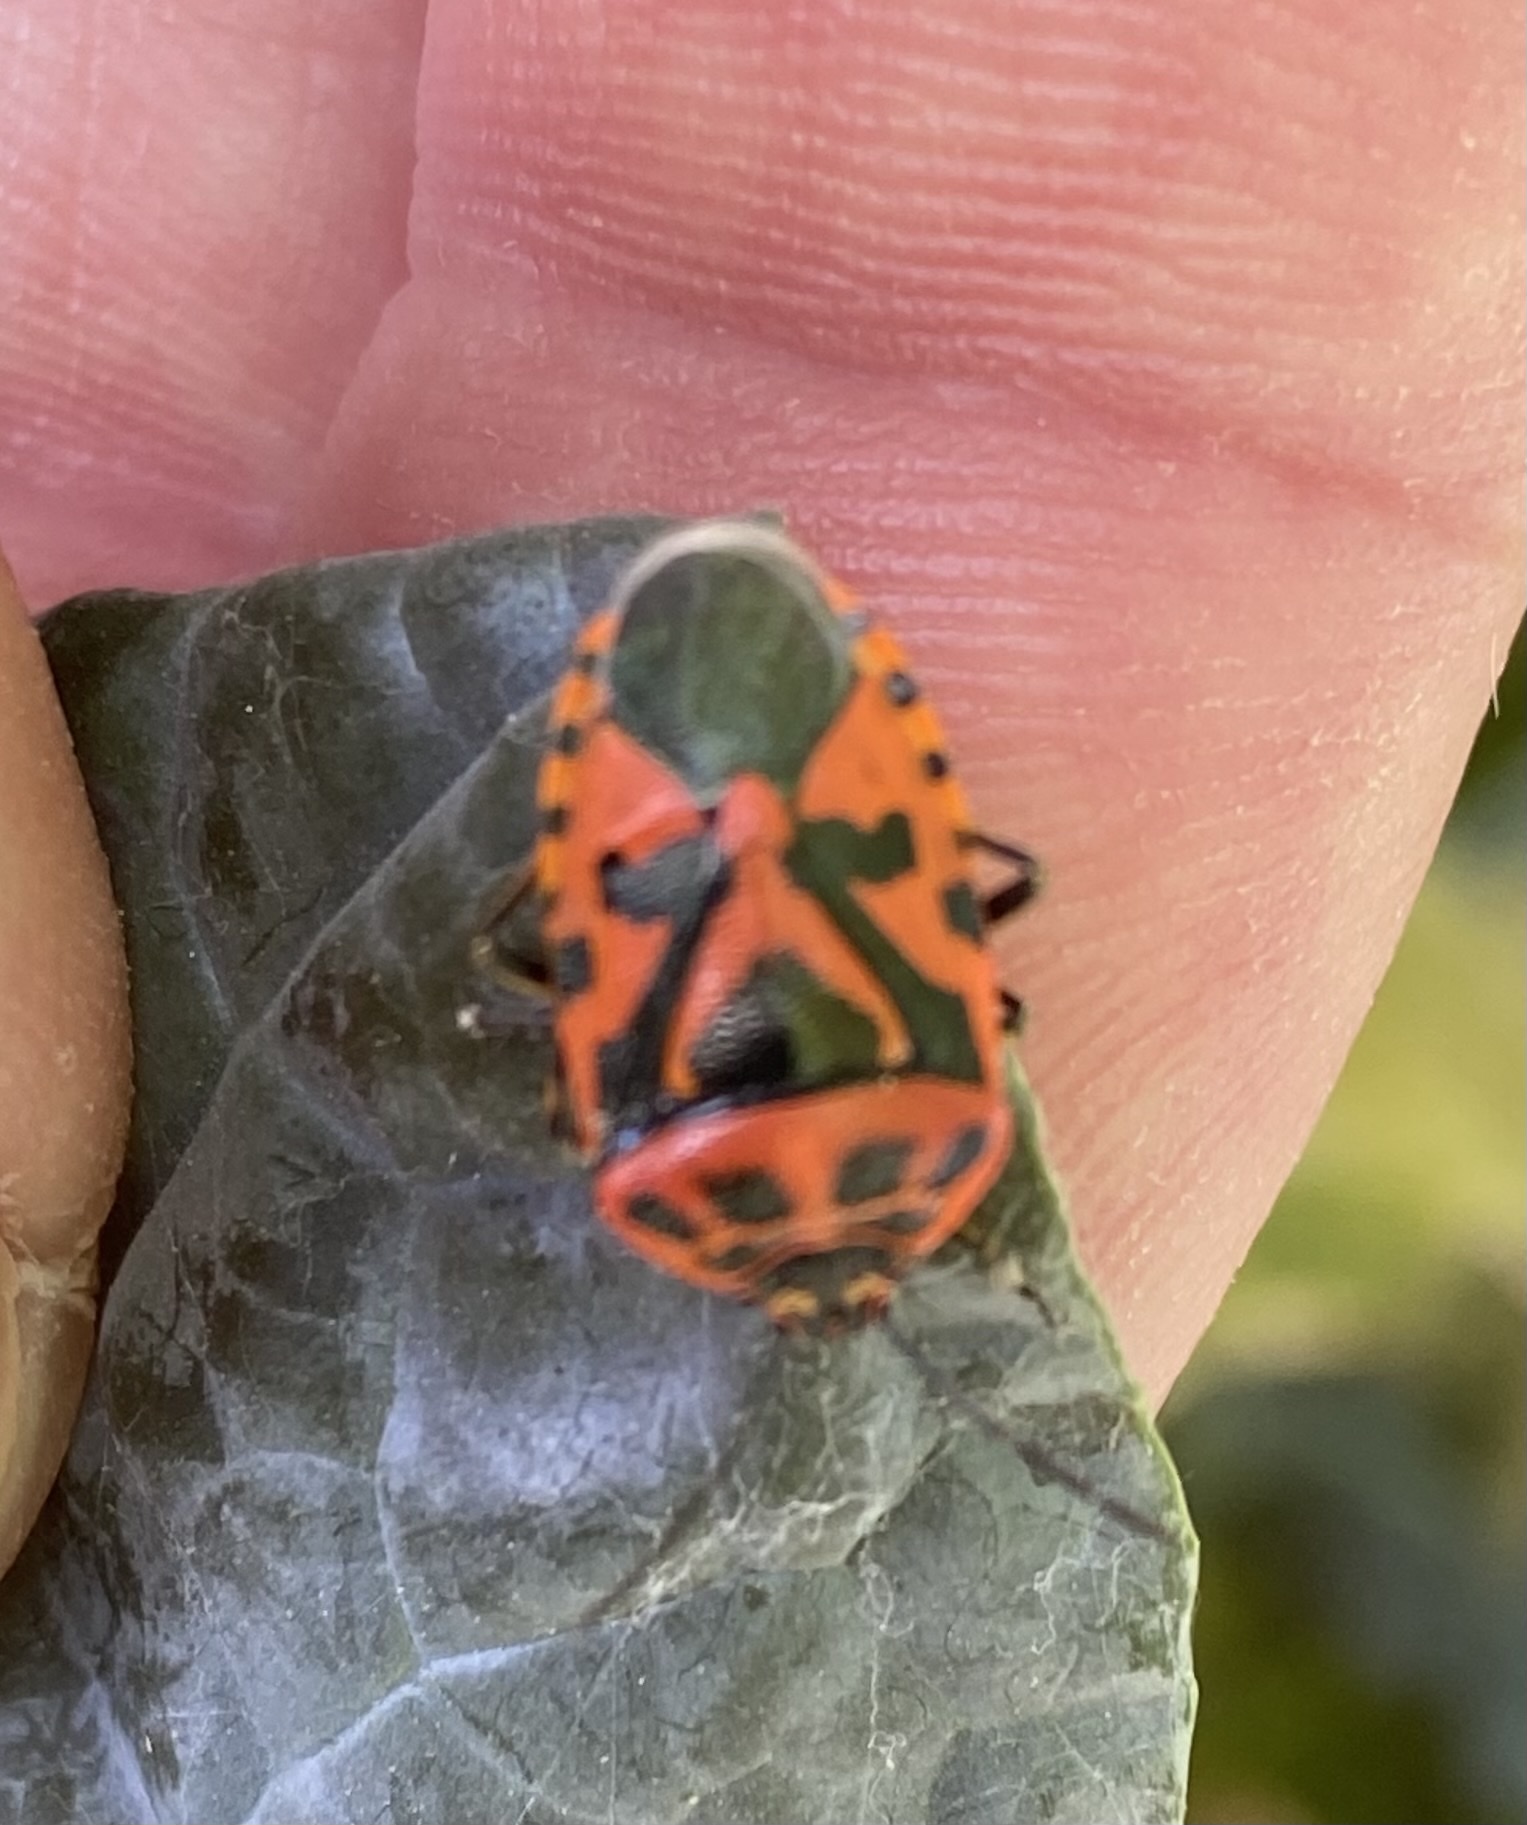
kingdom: Animalia
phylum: Arthropoda
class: Insecta
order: Hemiptera
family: Pentatomidae
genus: Eurydema
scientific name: Eurydema ventralis
